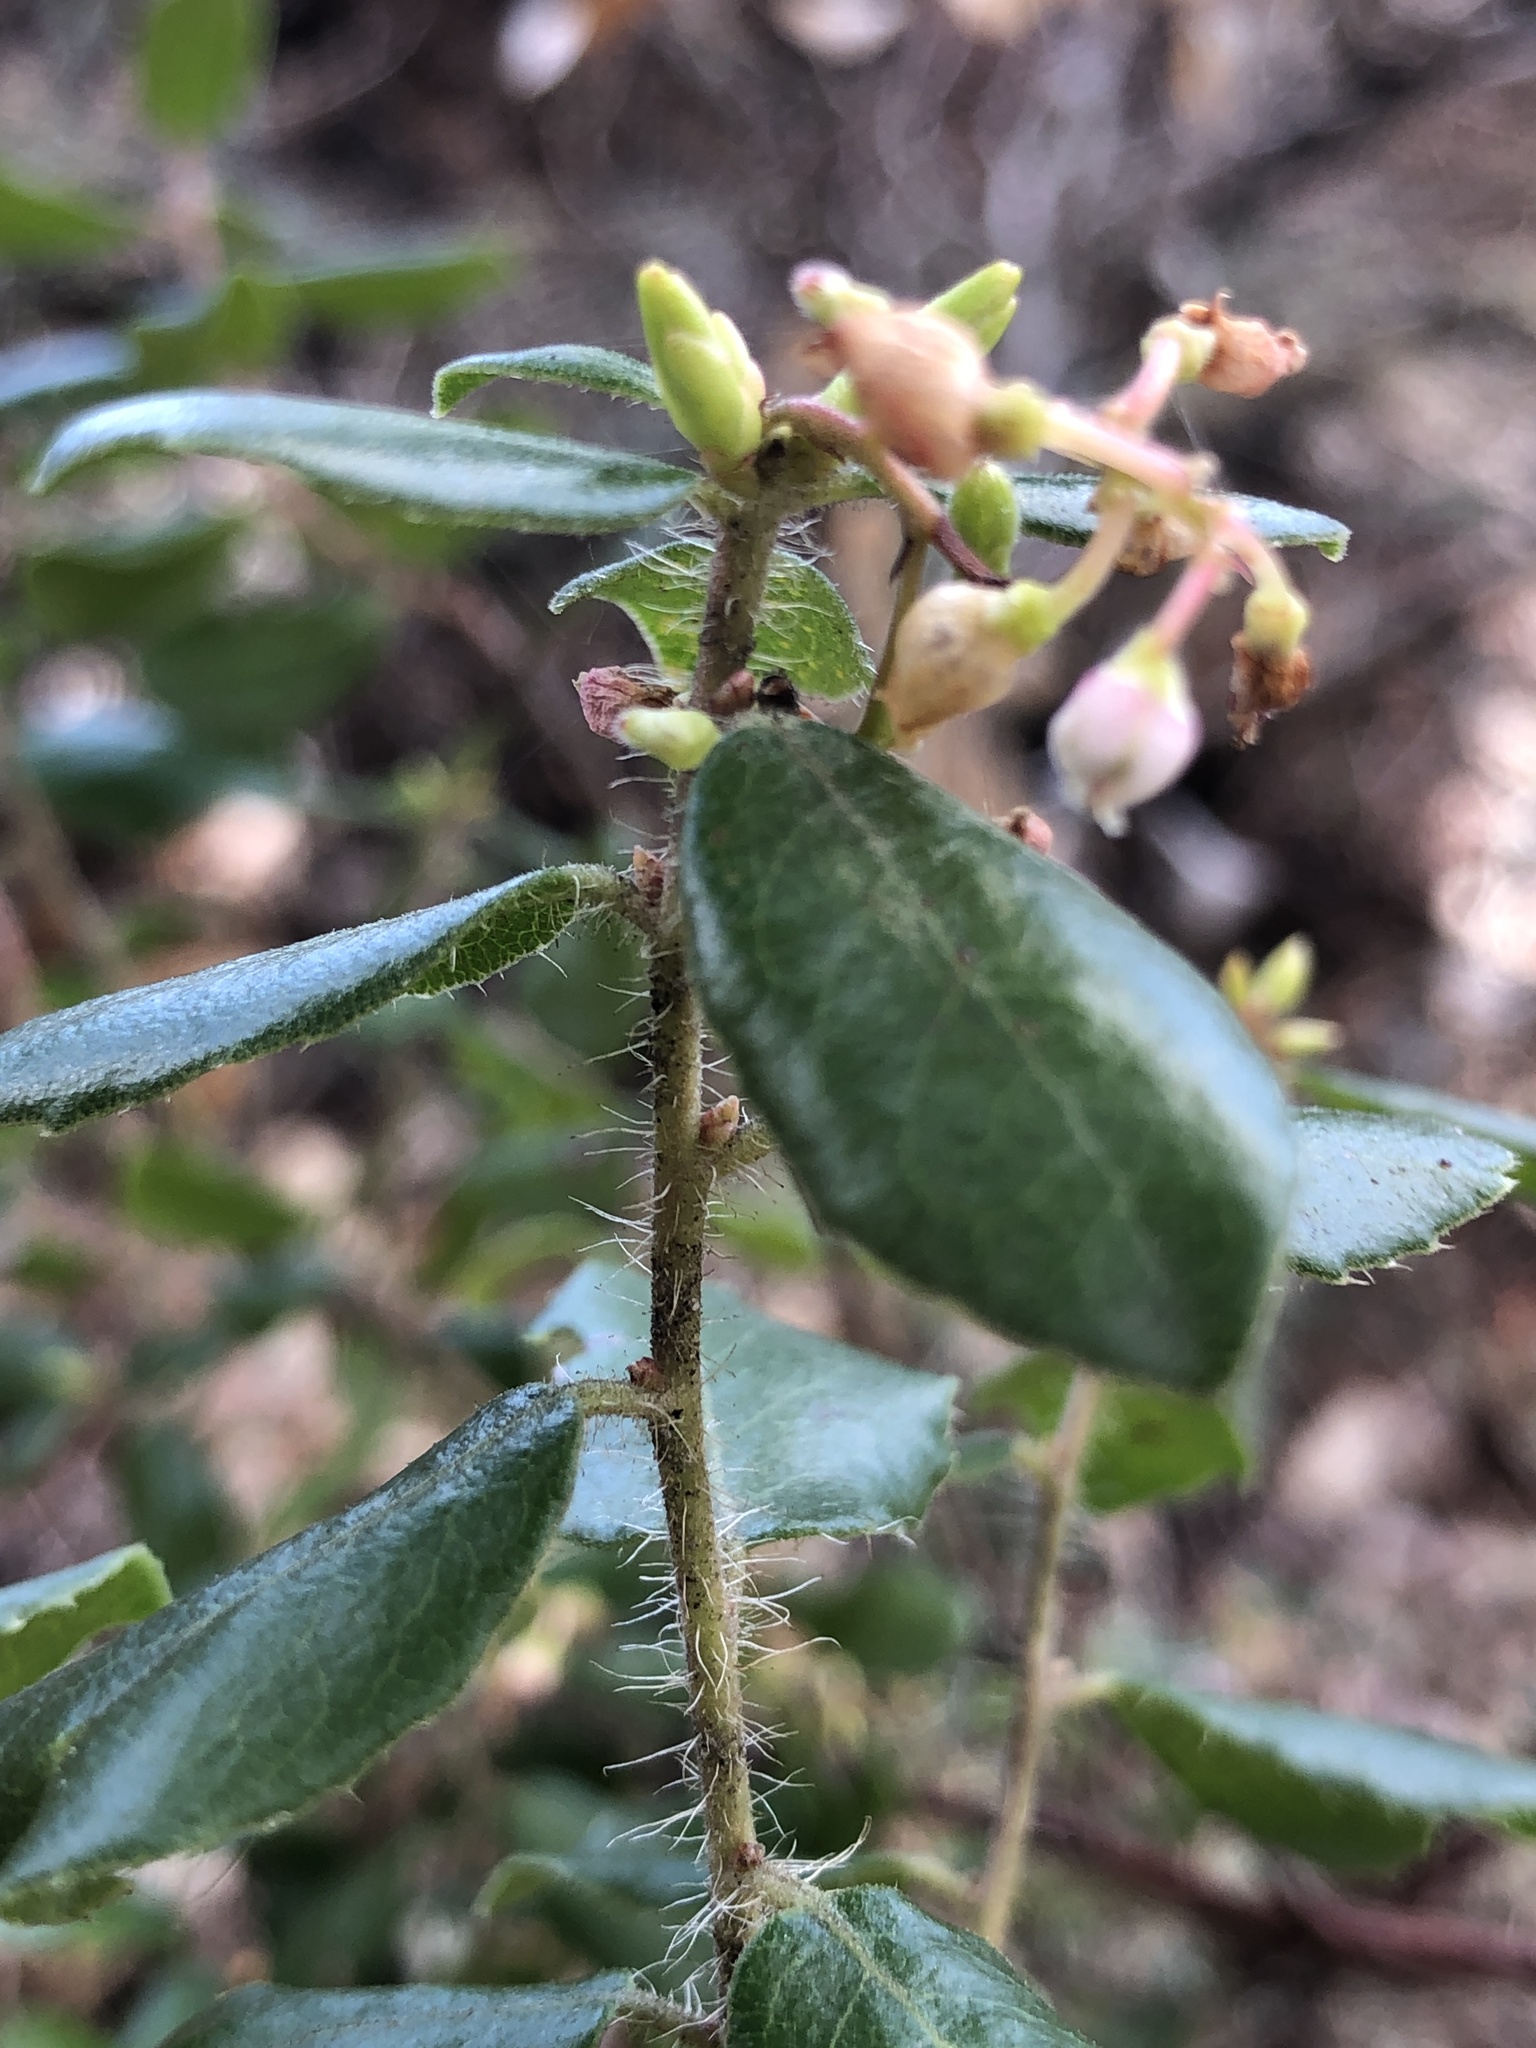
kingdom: Plantae
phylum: Tracheophyta
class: Magnoliopsida
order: Ericales
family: Ericaceae
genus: Arctostaphylos
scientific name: Arctostaphylos nummularia
